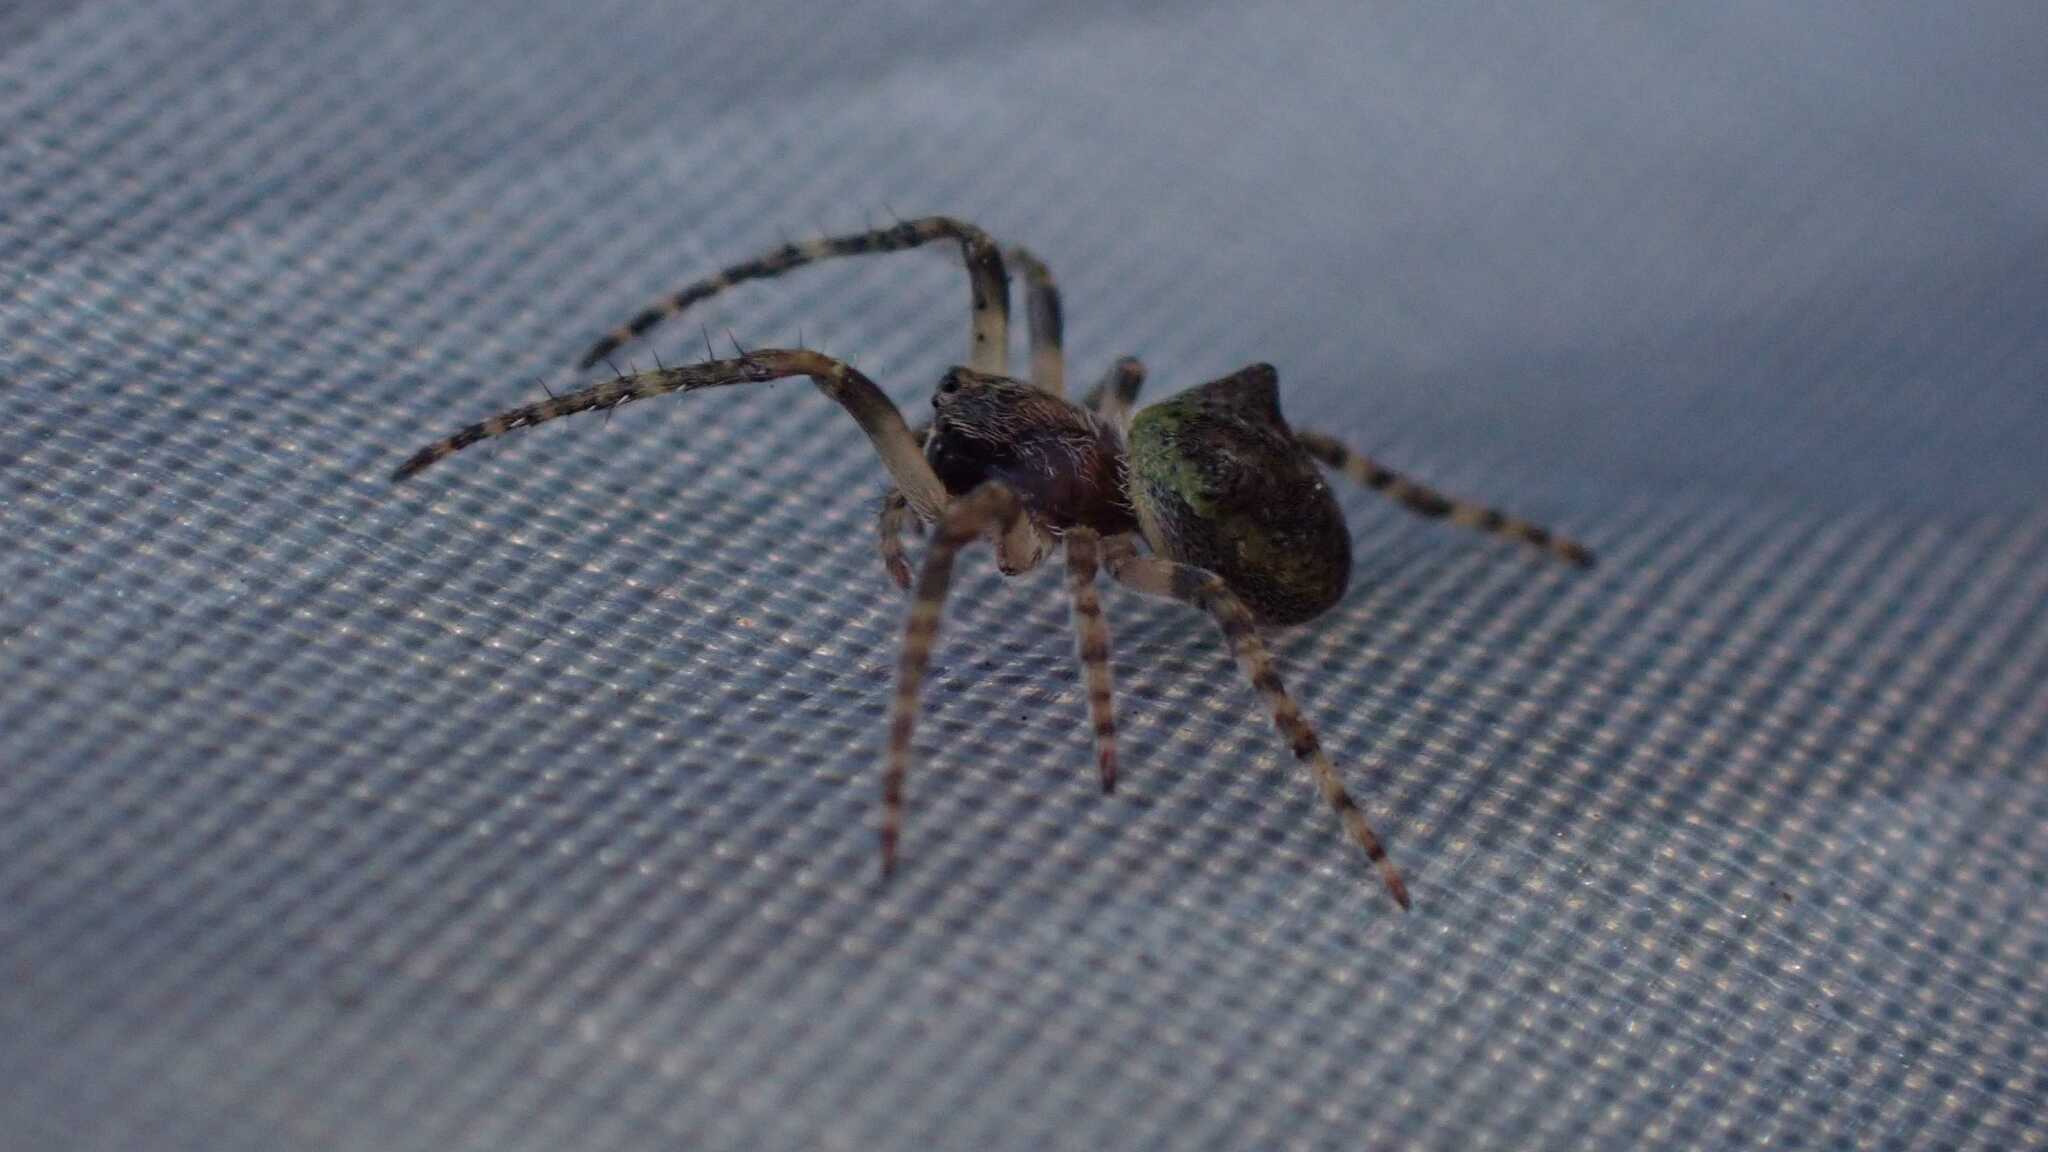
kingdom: Animalia
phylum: Arthropoda
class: Arachnida
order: Araneae
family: Araneidae
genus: Gibbaranea
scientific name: Gibbaranea gibbosa
